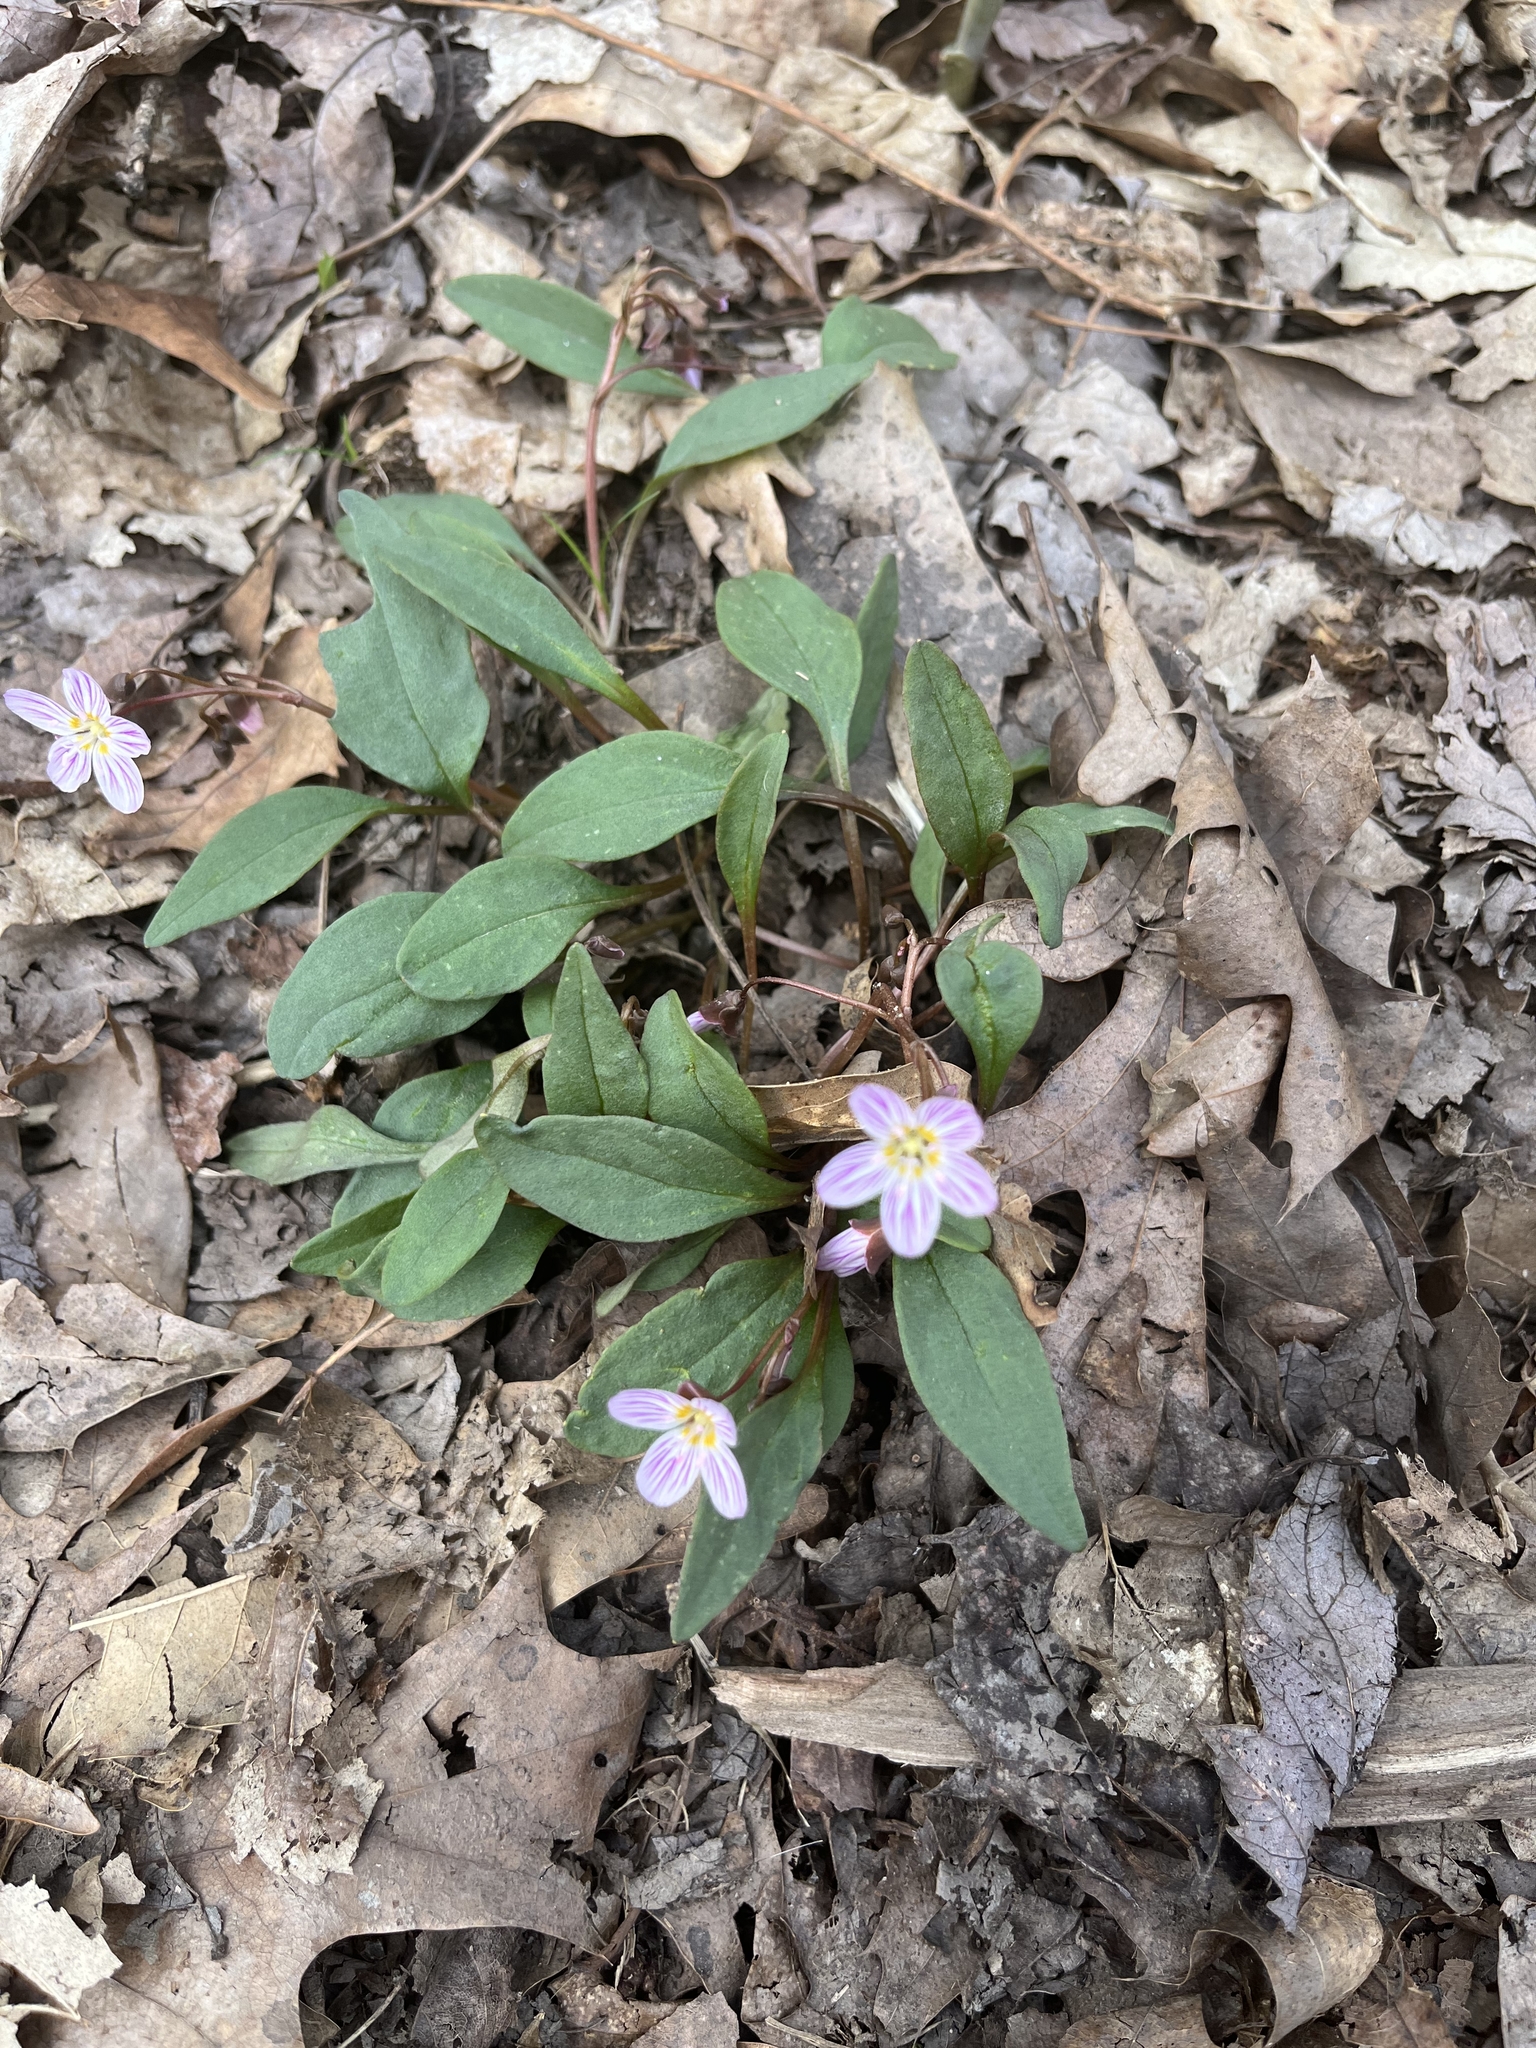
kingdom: Plantae
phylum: Tracheophyta
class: Magnoliopsida
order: Caryophyllales
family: Montiaceae
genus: Claytonia
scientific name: Claytonia caroliniana
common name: Carolina spring beauty
